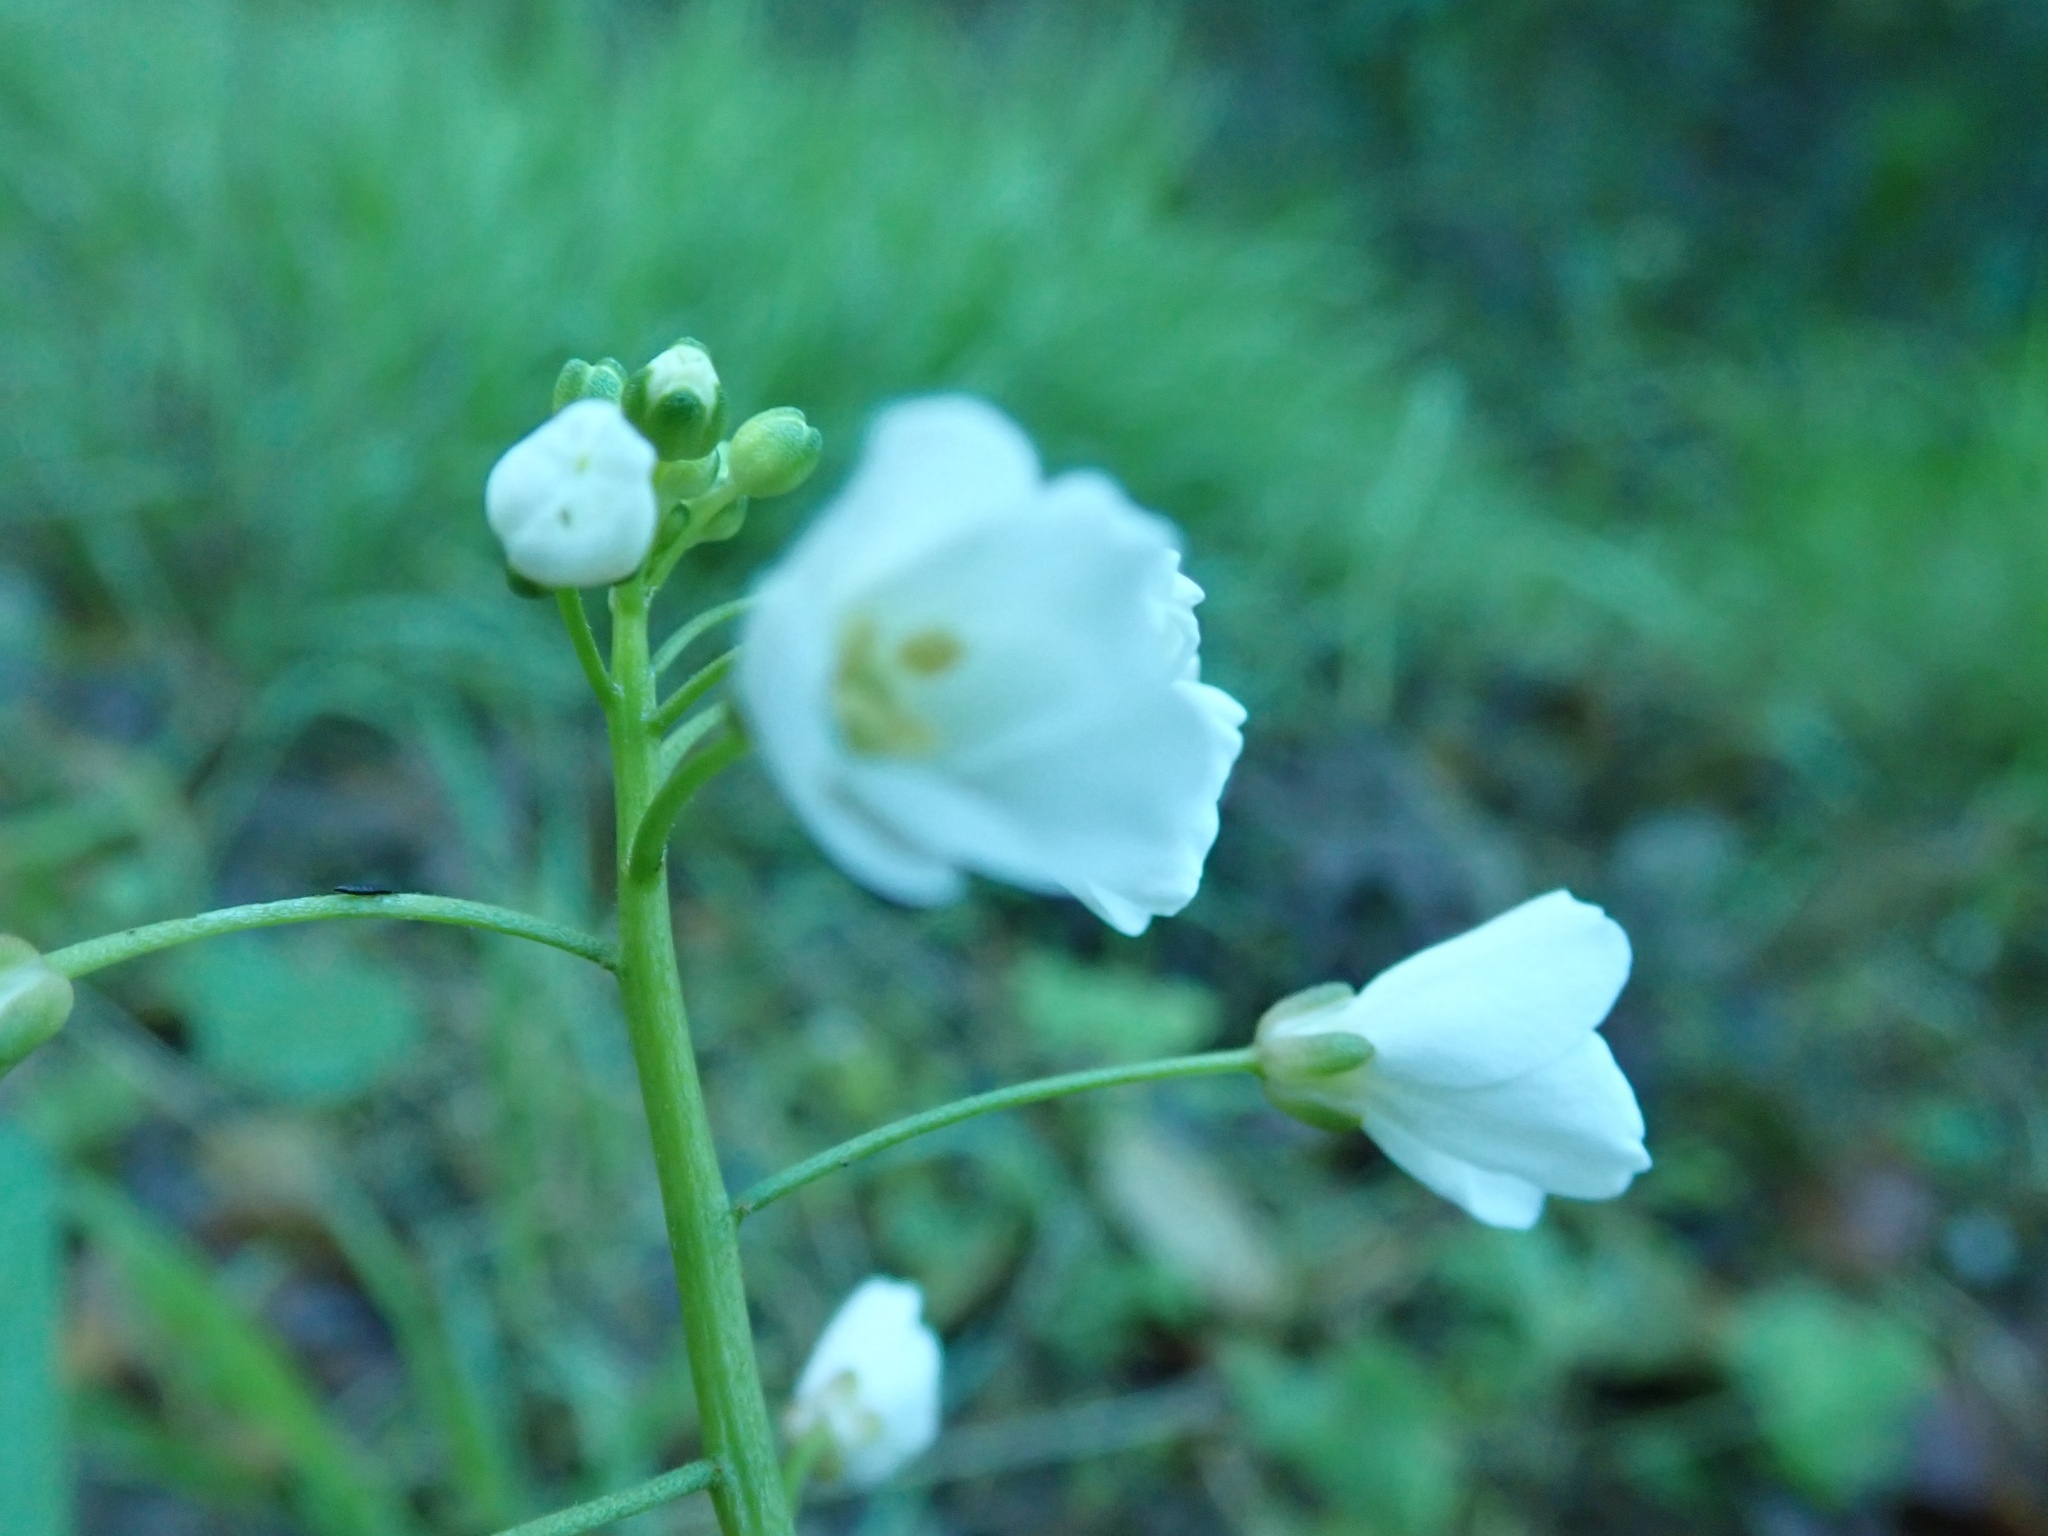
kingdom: Plantae
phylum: Tracheophyta
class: Magnoliopsida
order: Brassicales
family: Brassicaceae
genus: Cardamine
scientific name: Cardamine californica
